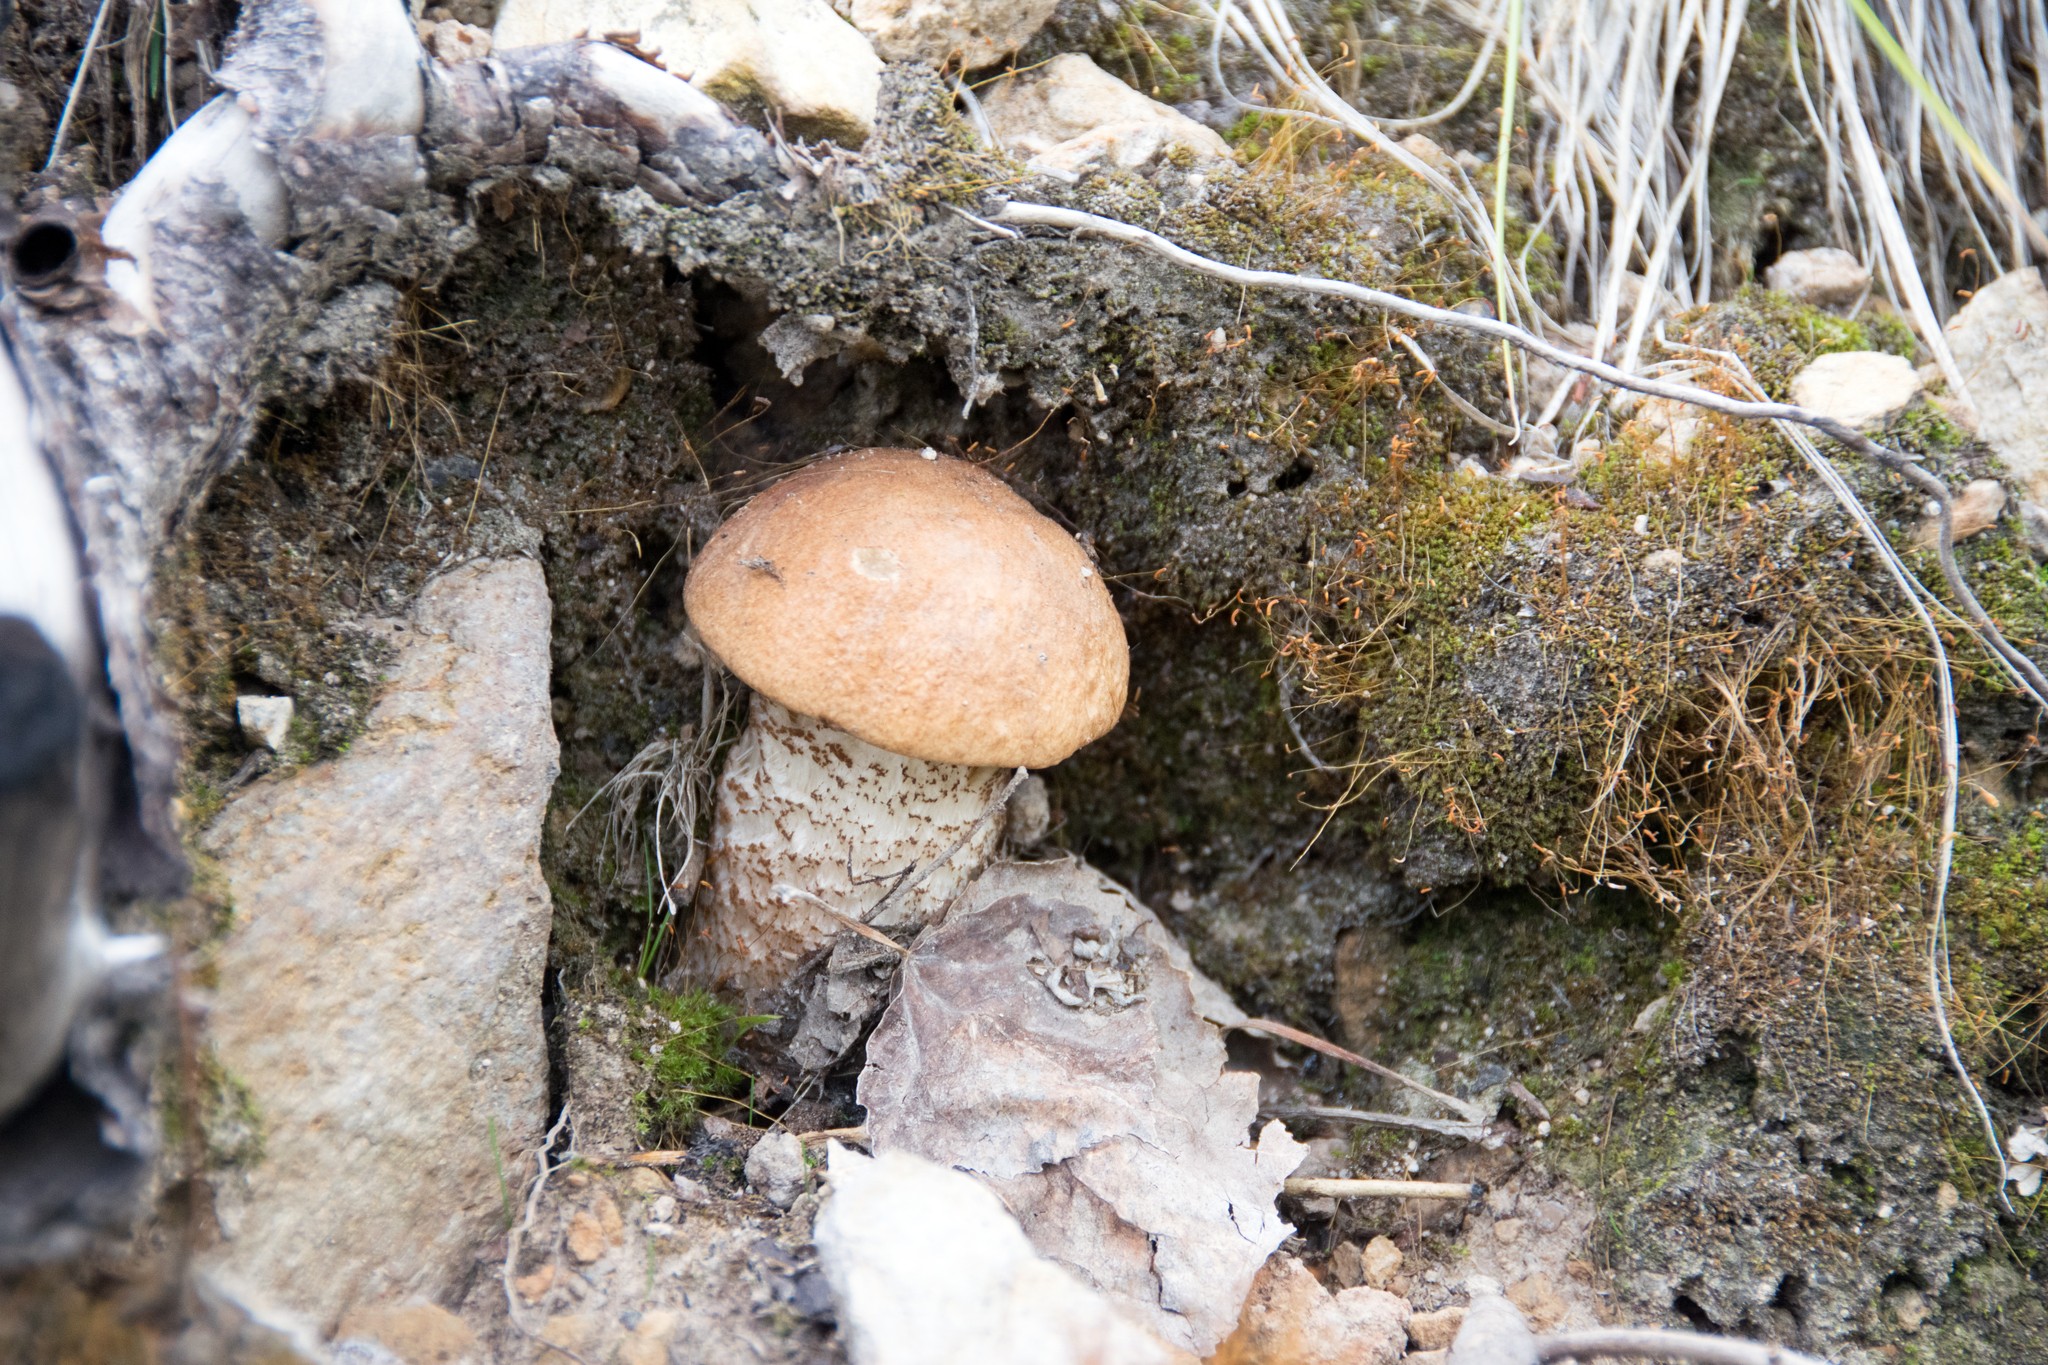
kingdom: Fungi
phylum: Basidiomycota
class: Agaricomycetes
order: Boletales
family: Boletaceae
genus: Leccinum
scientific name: Leccinum insigne
